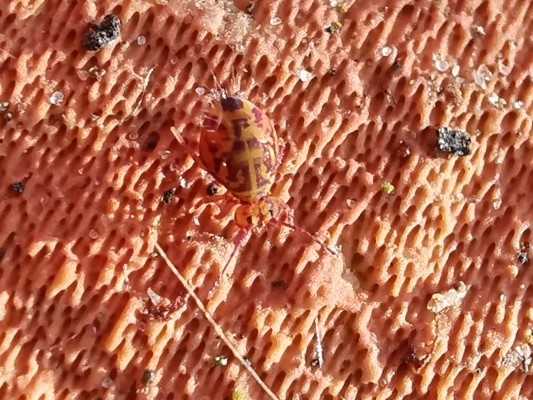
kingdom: Animalia
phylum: Arthropoda
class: Collembola
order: Symphypleona
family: Dicyrtomidae
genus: Dicyrtomina
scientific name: Dicyrtomina ornata
